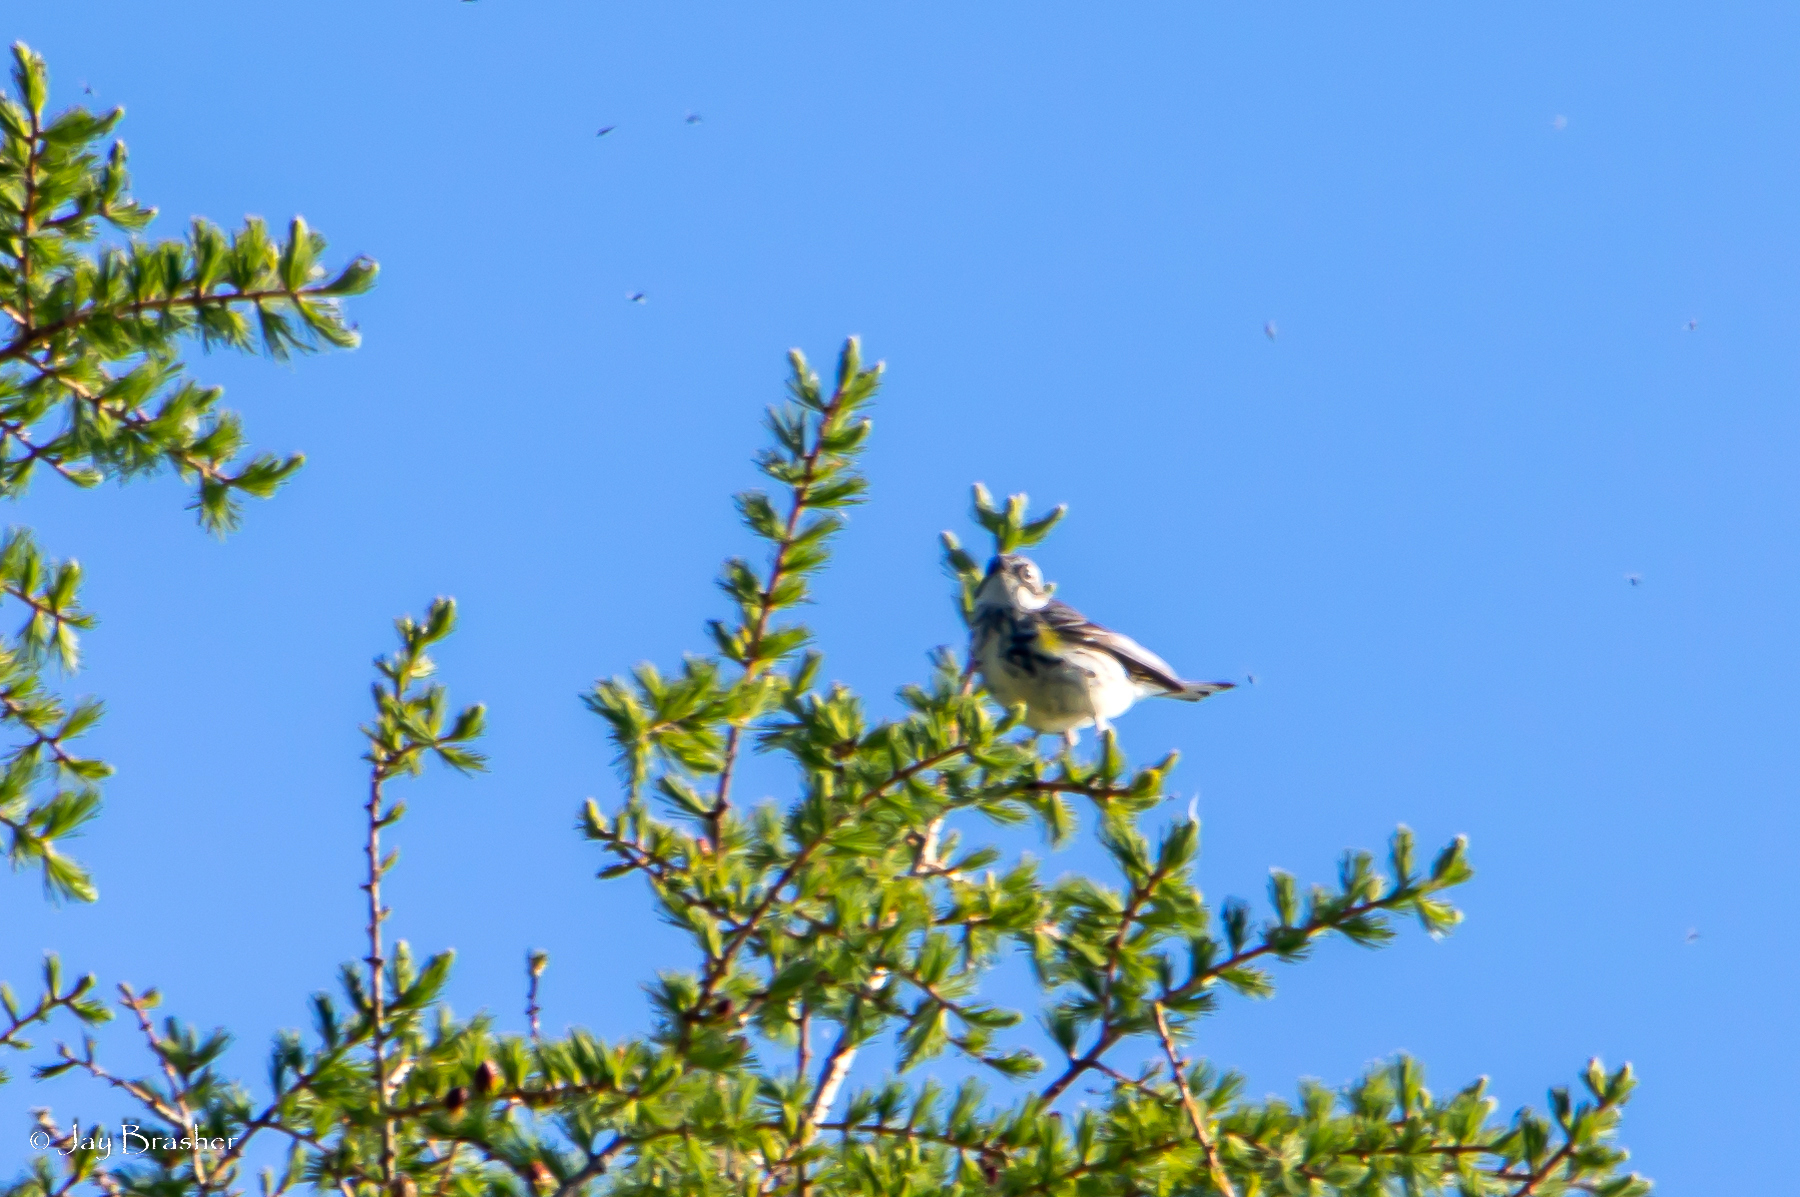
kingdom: Animalia
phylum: Chordata
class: Aves
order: Passeriformes
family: Parulidae
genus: Setophaga
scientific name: Setophaga coronata
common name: Myrtle warbler
